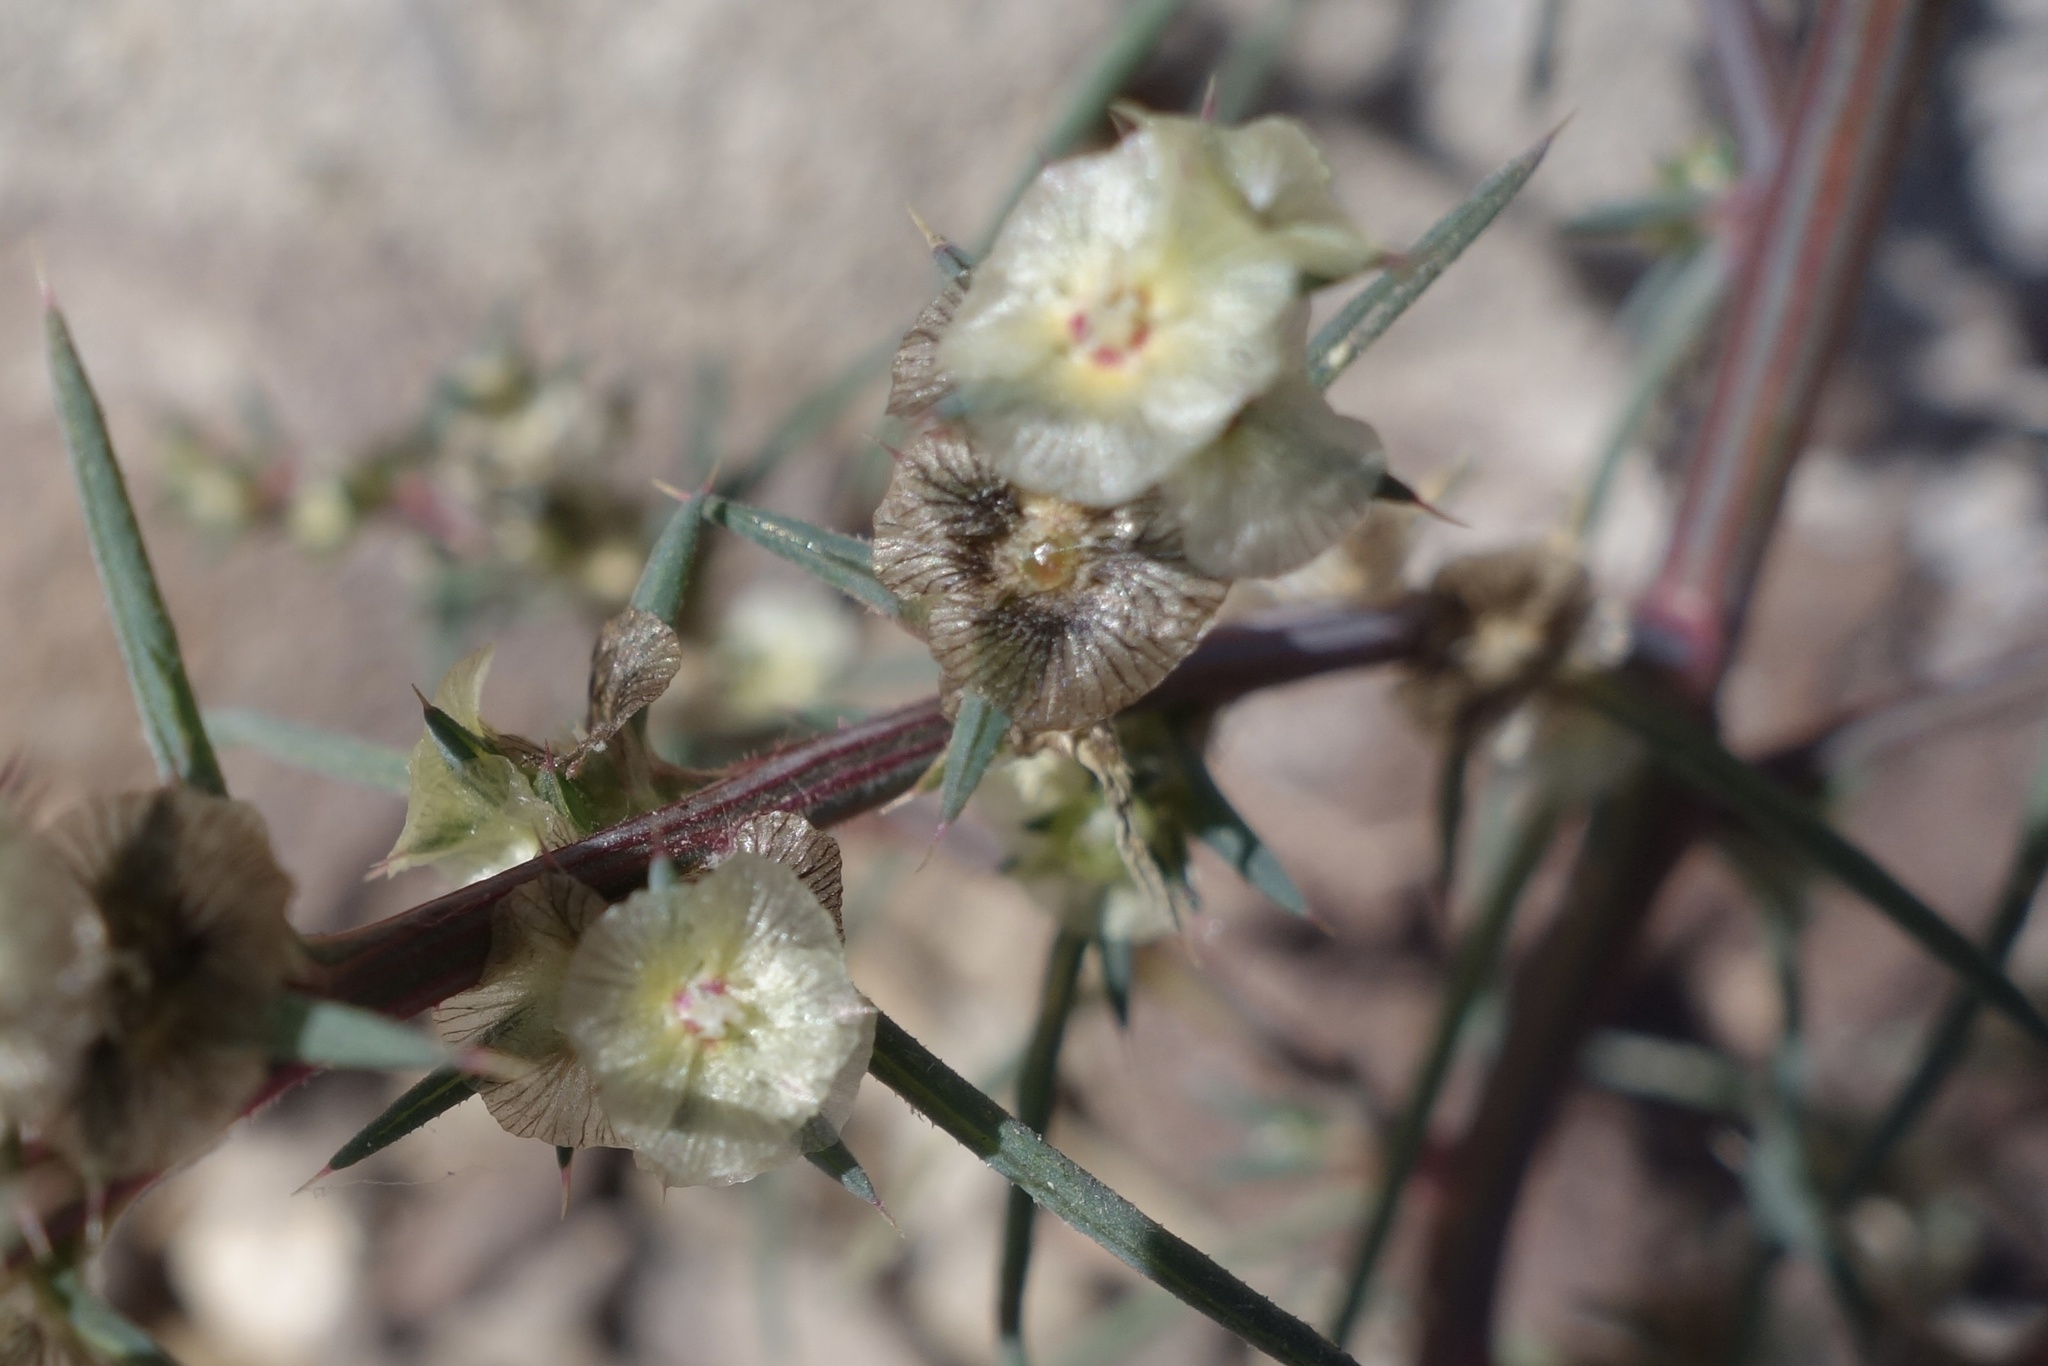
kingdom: Plantae
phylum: Tracheophyta
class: Magnoliopsida
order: Caryophyllales
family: Amaranthaceae
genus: Salsola
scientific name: Salsola tragus
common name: Prickly russian thistle
